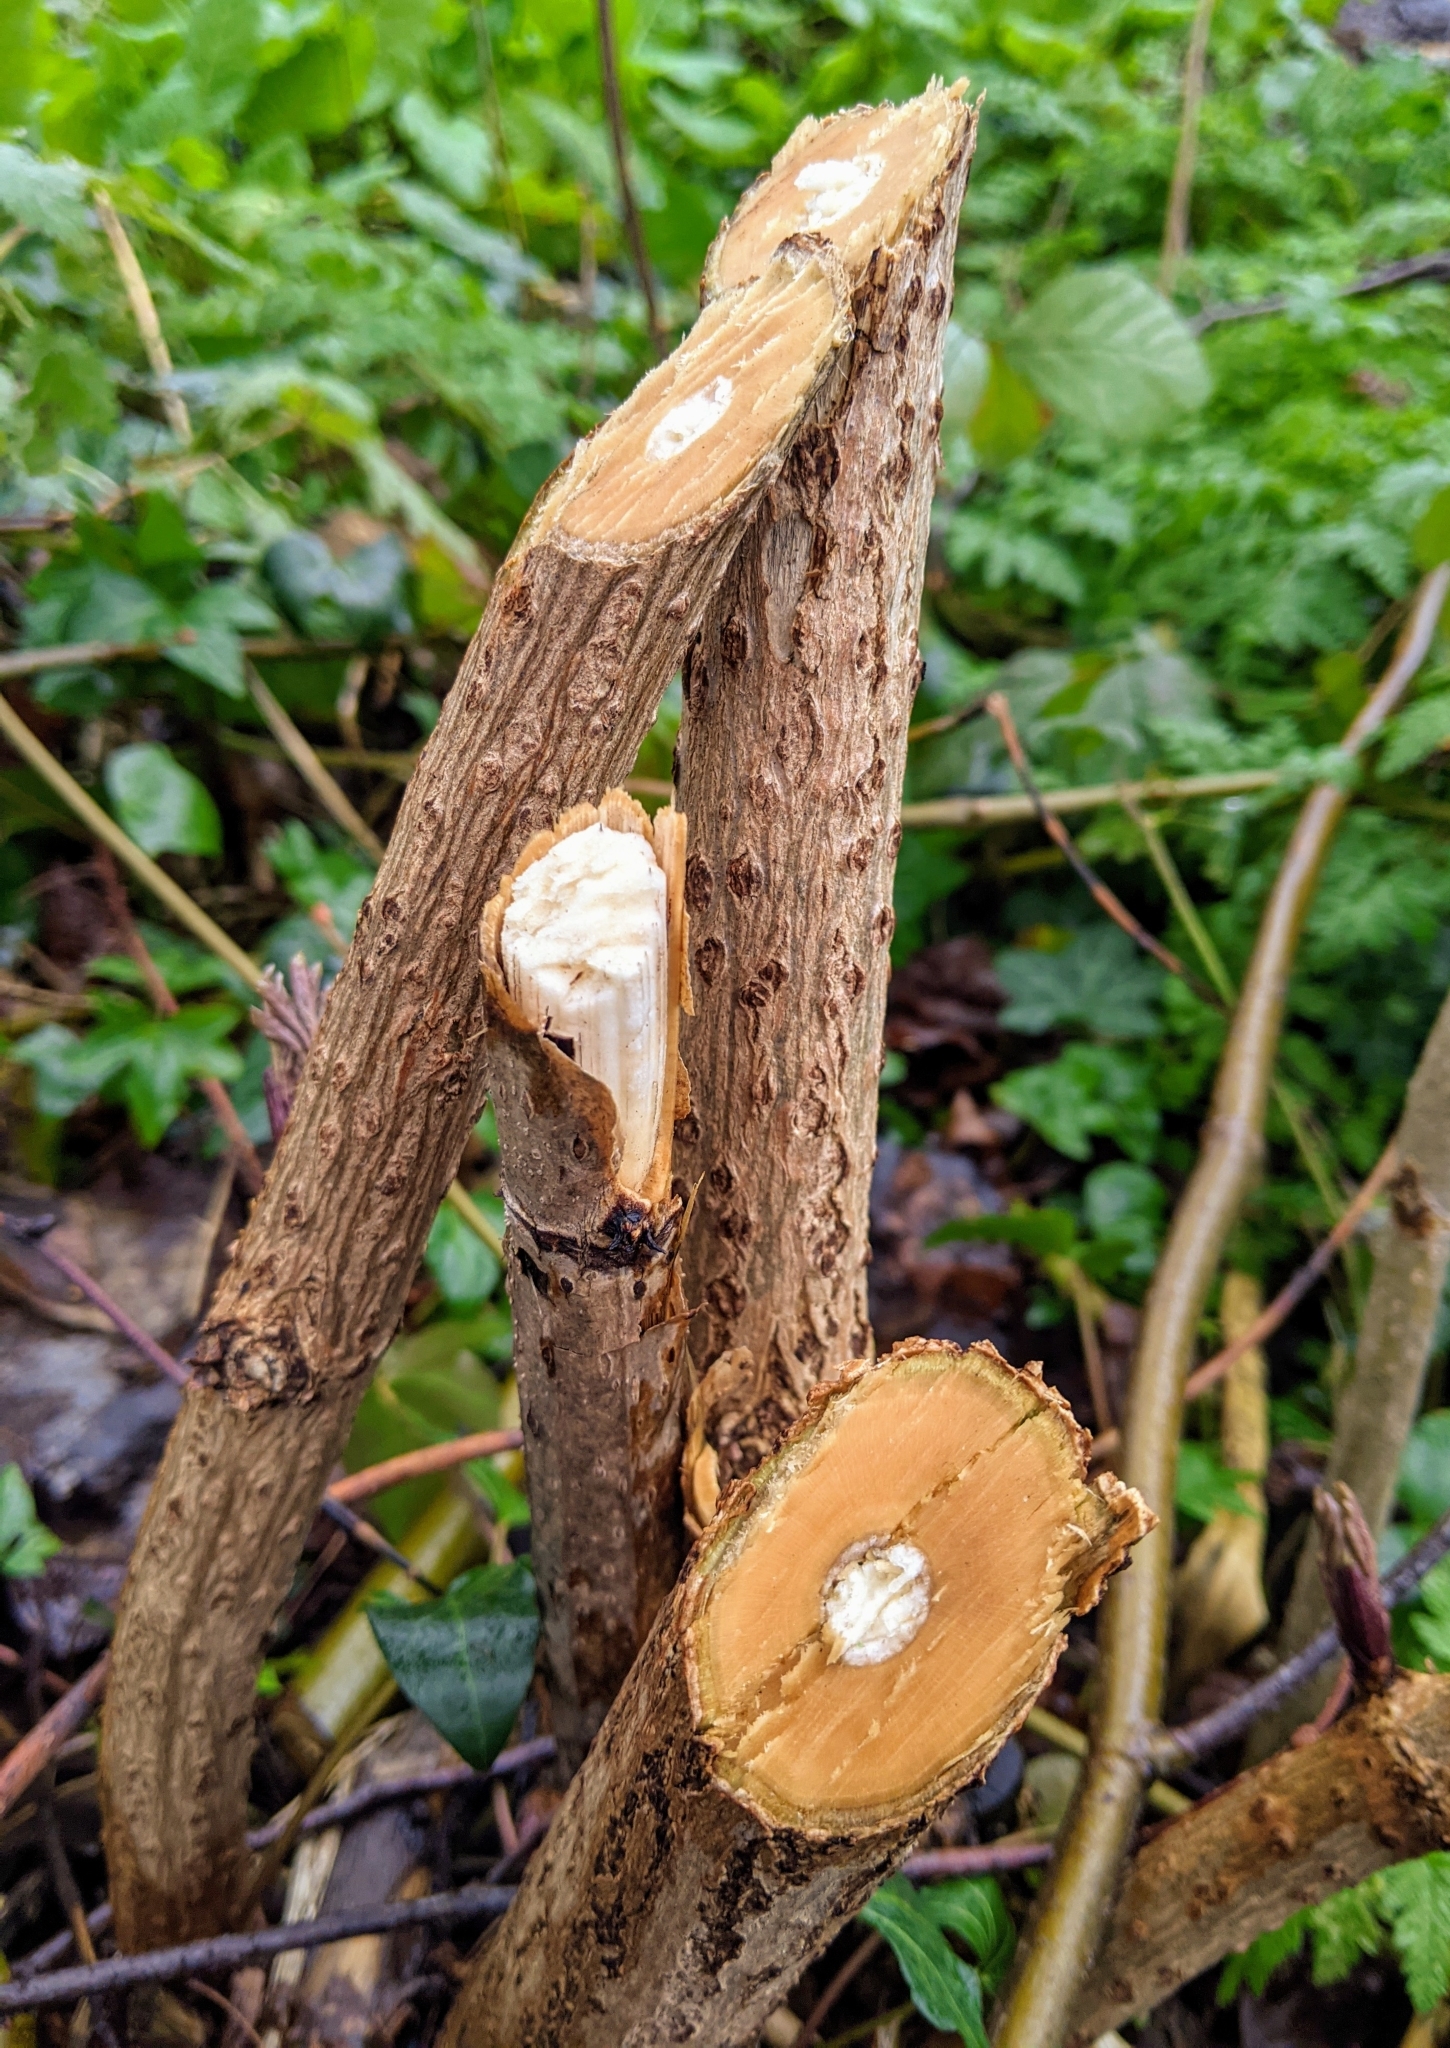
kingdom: Plantae
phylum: Tracheophyta
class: Magnoliopsida
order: Dipsacales
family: Viburnaceae
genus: Sambucus
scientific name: Sambucus nigra
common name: Elder
